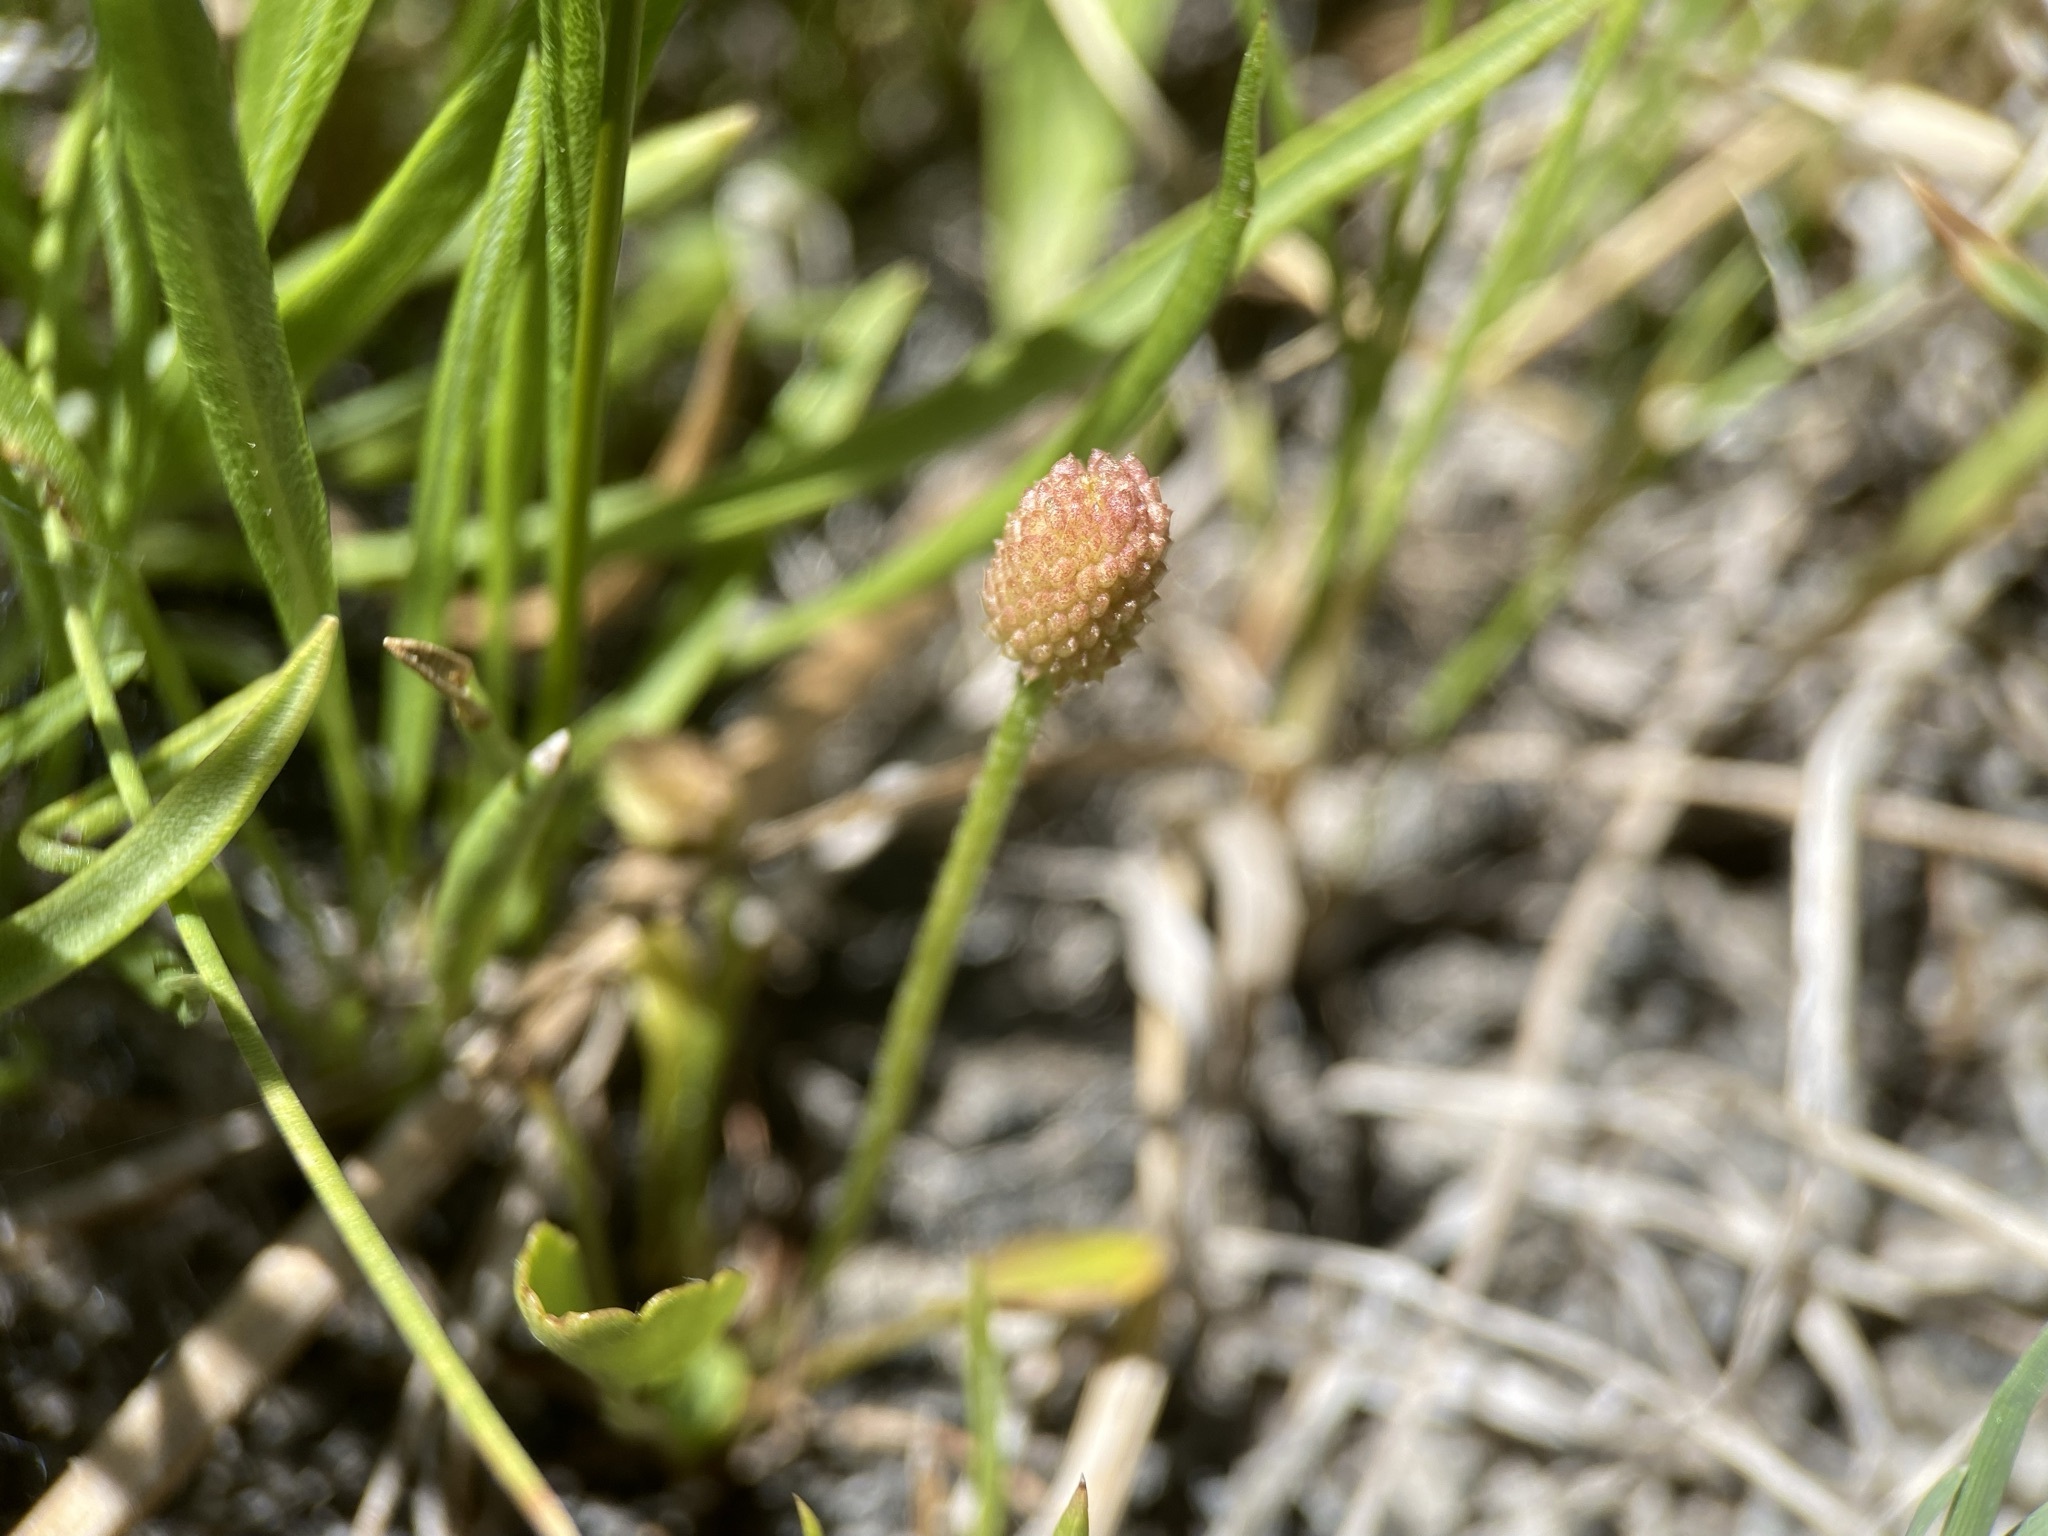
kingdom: Plantae
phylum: Tracheophyta
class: Magnoliopsida
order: Ranunculales
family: Ranunculaceae
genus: Halerpestes
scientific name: Halerpestes cymbalaria
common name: Seaside crowfoot
